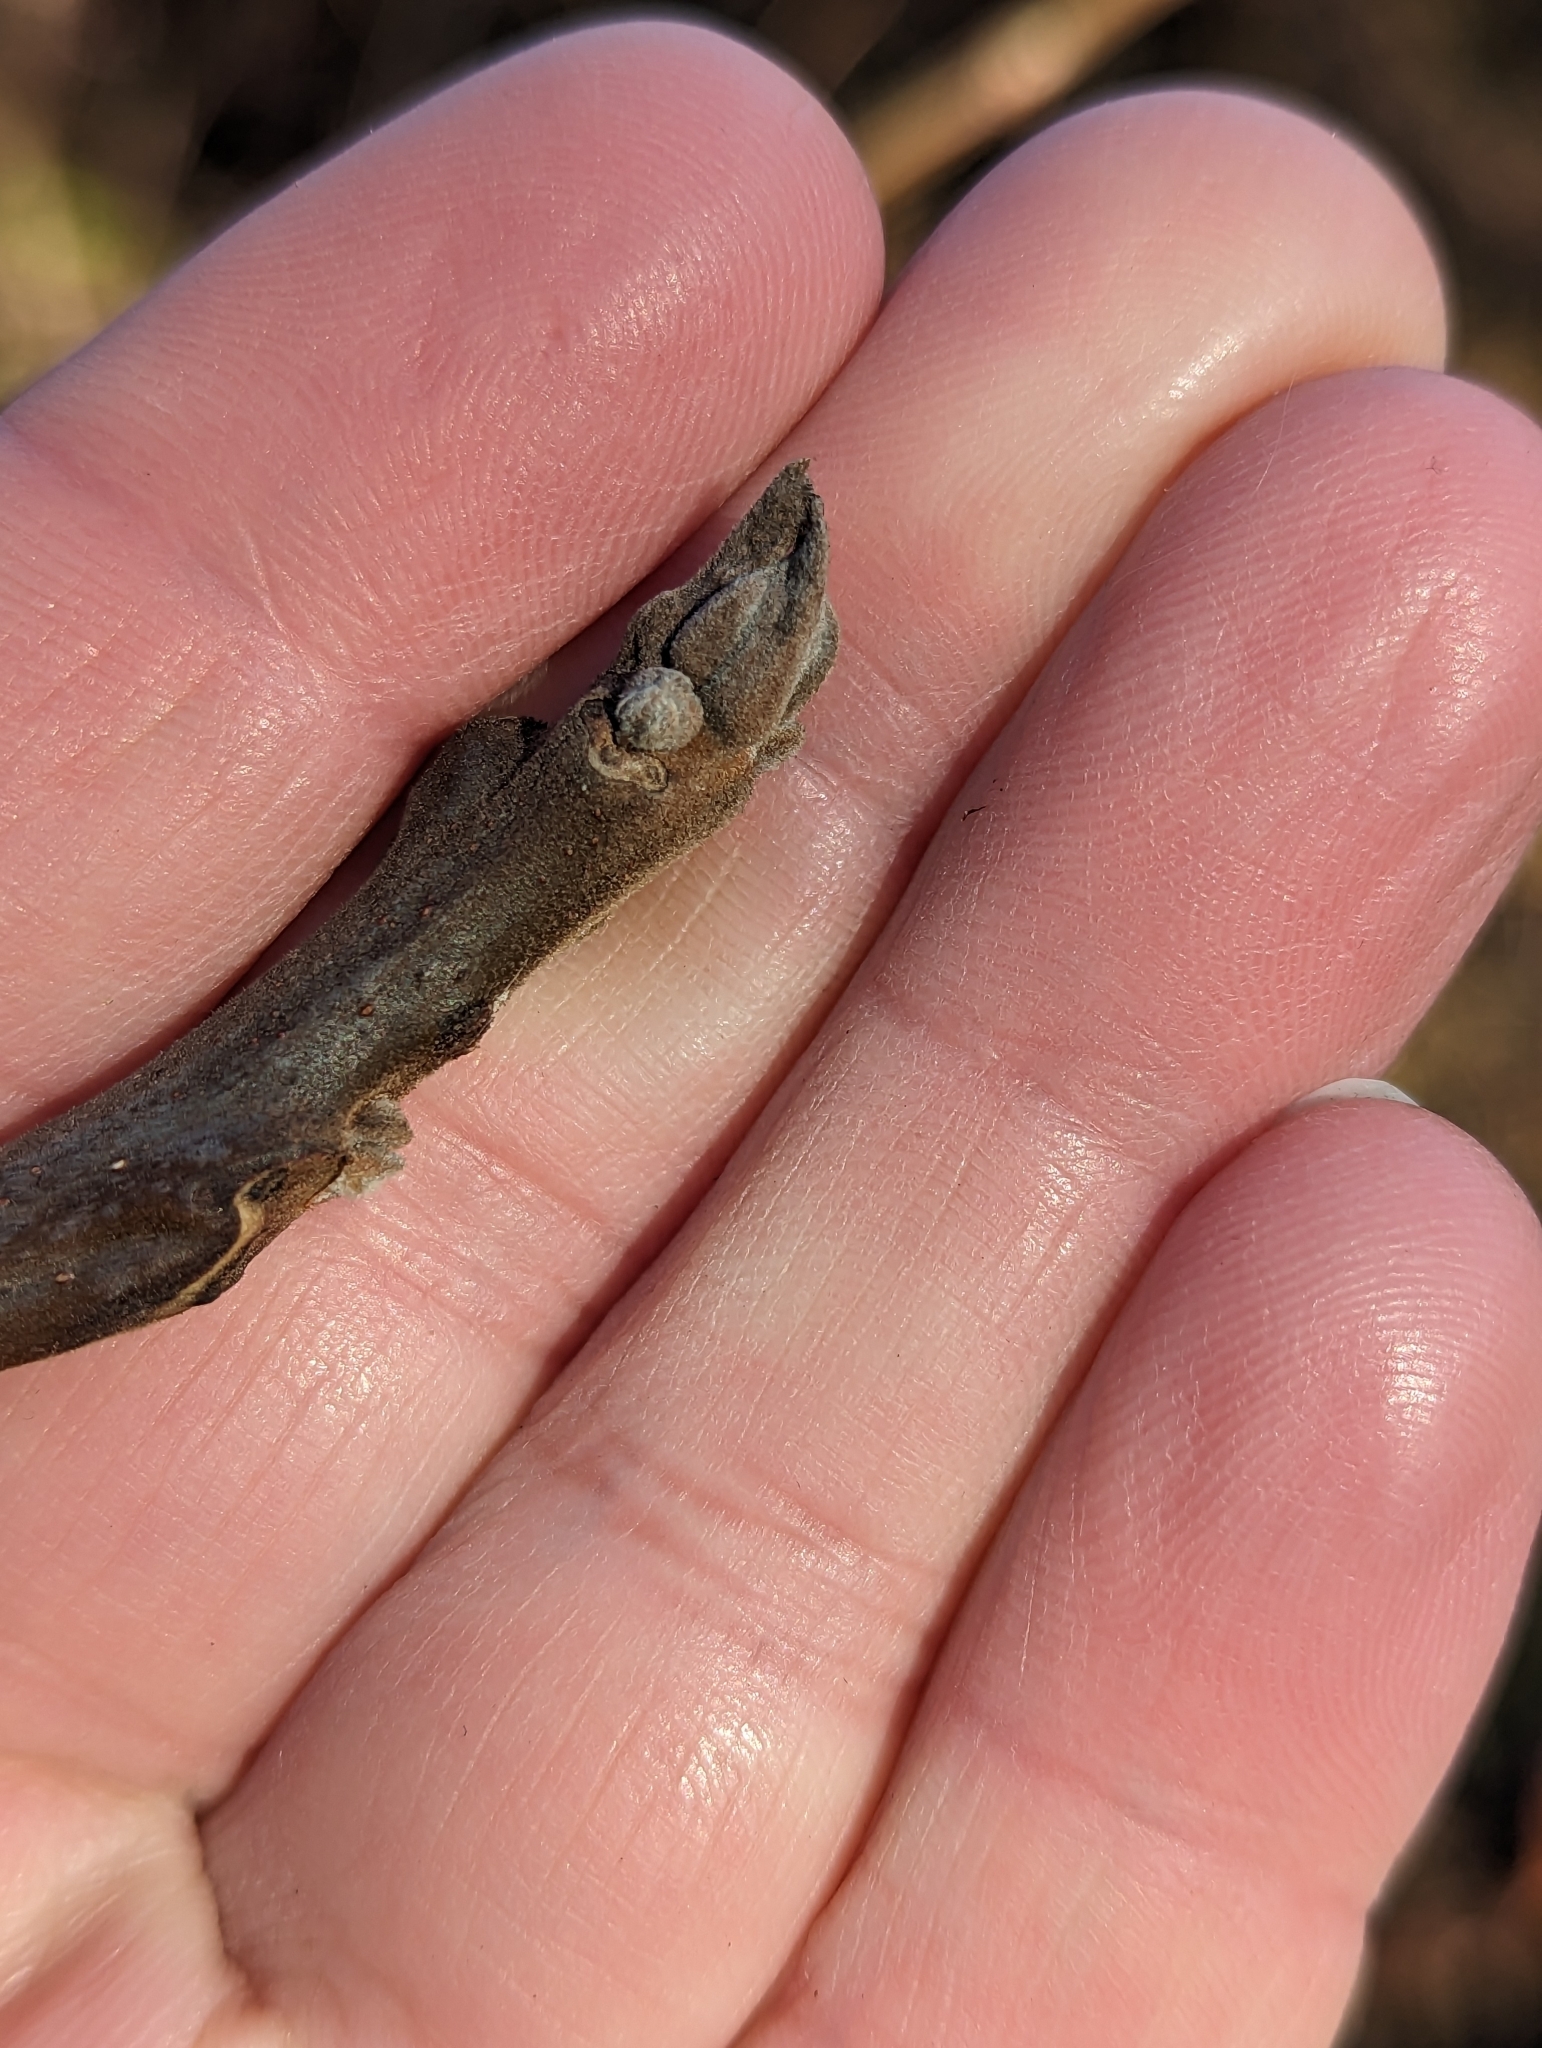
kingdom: Plantae
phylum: Tracheophyta
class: Magnoliopsida
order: Fagales
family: Juglandaceae
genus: Juglans
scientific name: Juglans nigra
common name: Black walnut
